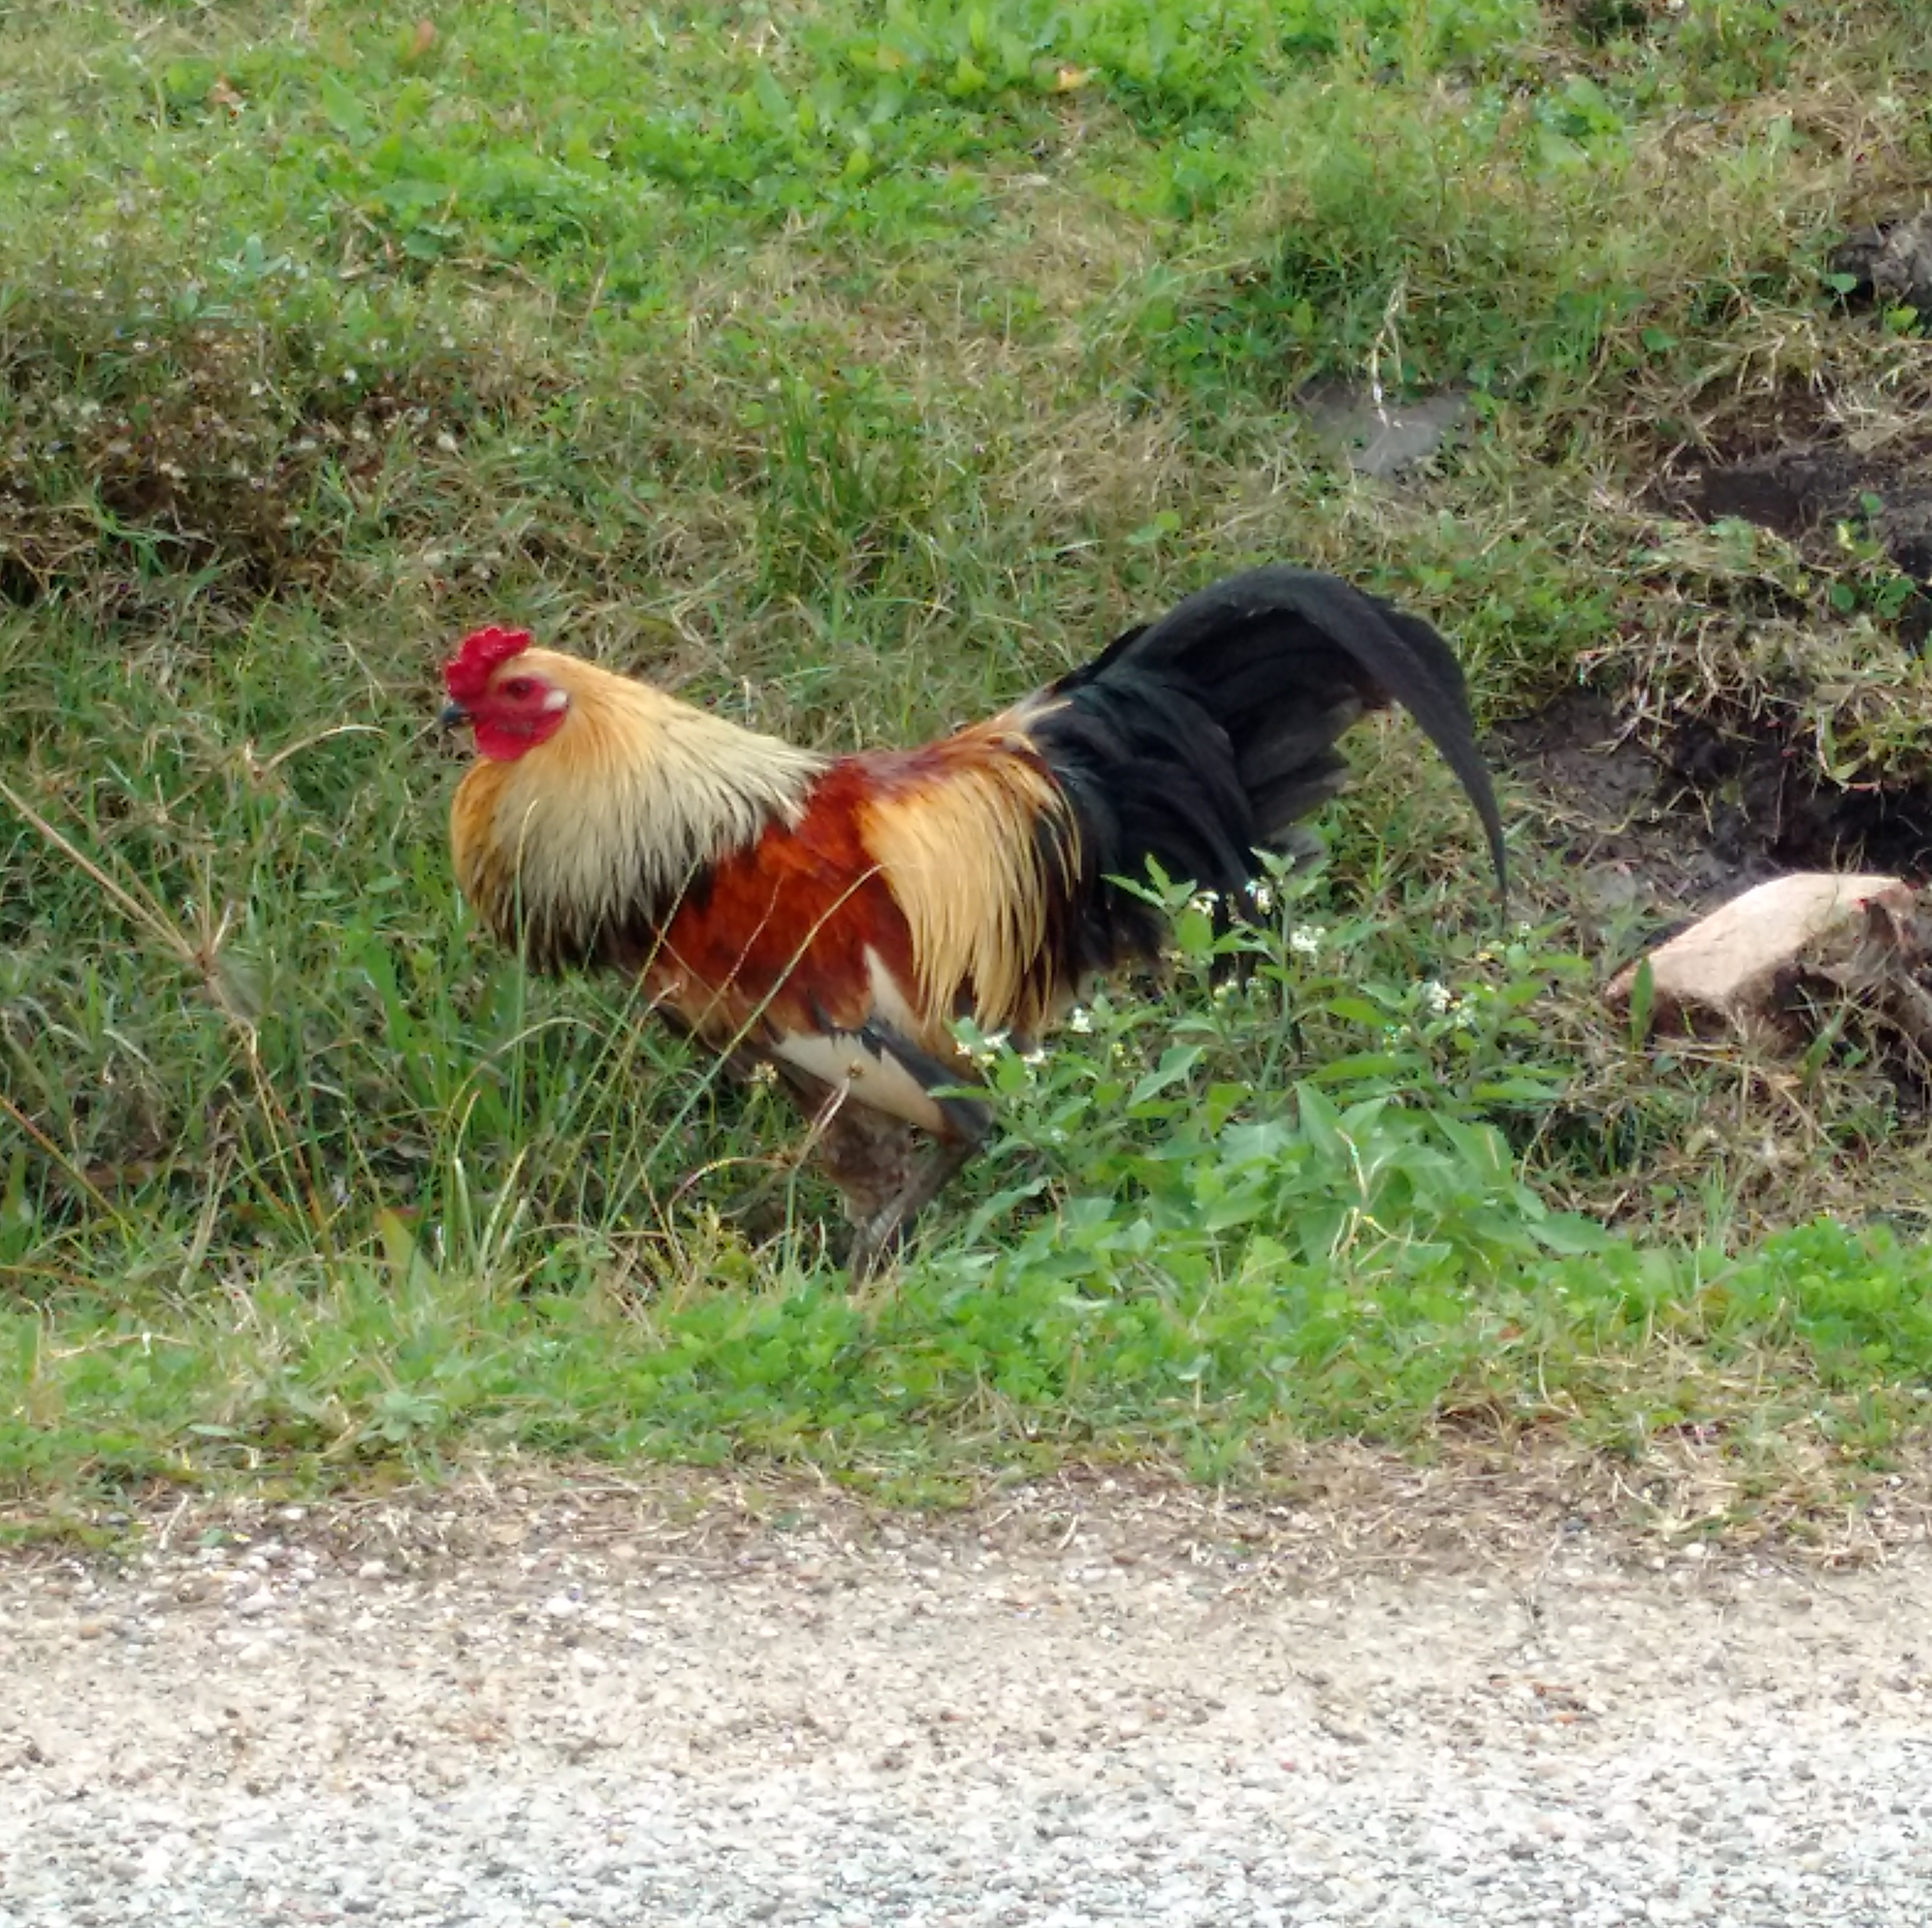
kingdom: Animalia
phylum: Chordata
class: Aves
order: Galliformes
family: Phasianidae
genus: Gallus
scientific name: Gallus gallus
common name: Red junglefowl
